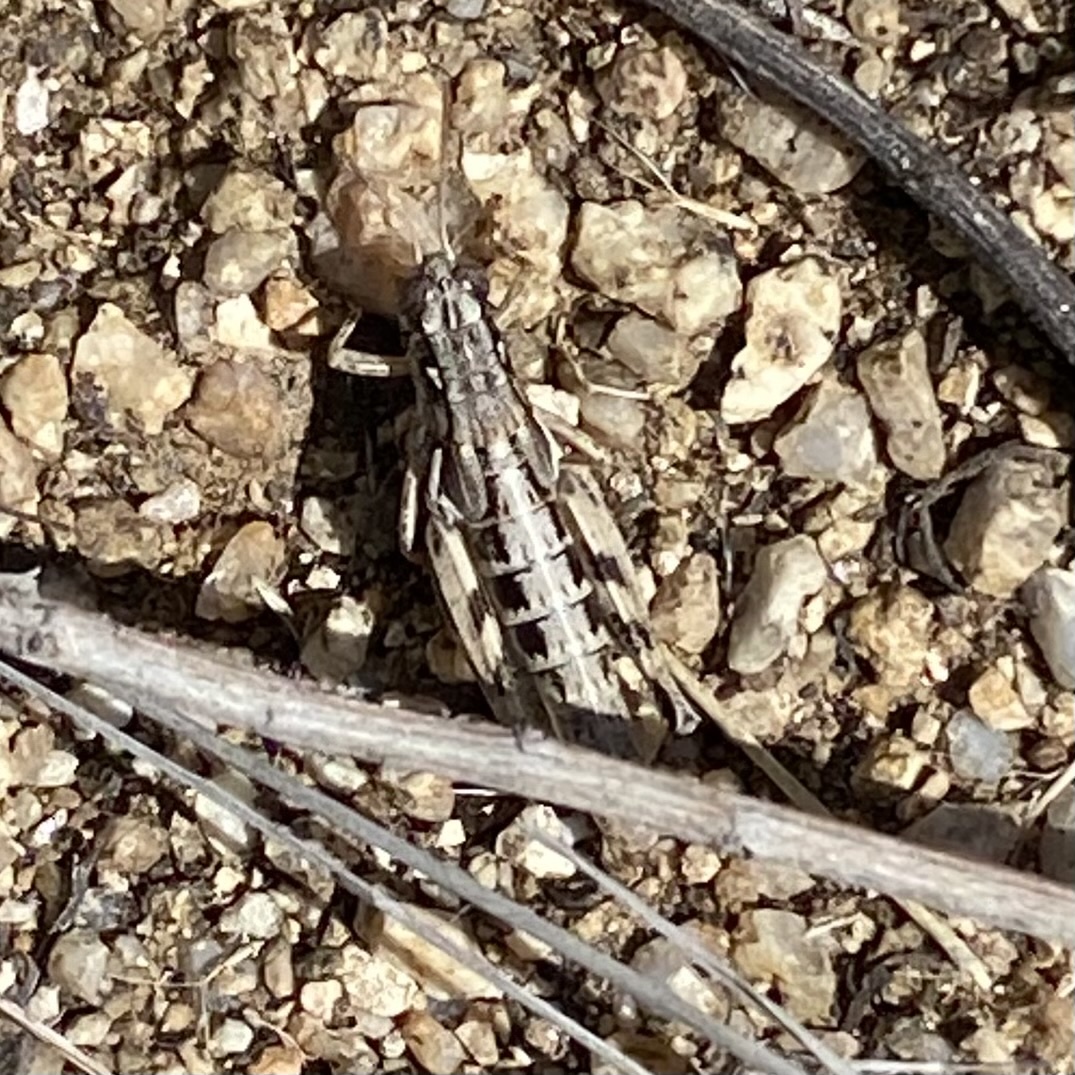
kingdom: Animalia
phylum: Arthropoda
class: Insecta
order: Orthoptera
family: Acrididae
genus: Melanoplus
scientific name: Melanoplus aridus
